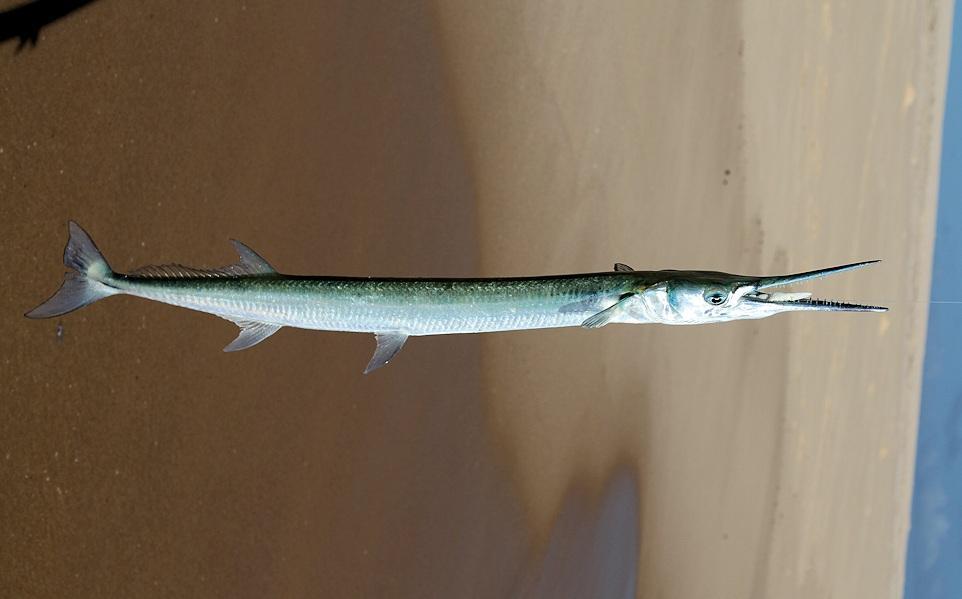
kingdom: Animalia
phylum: Chordata
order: Beloniformes
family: Belonidae
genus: Tylosurus
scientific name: Tylosurus crocodilus
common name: Houndfish
